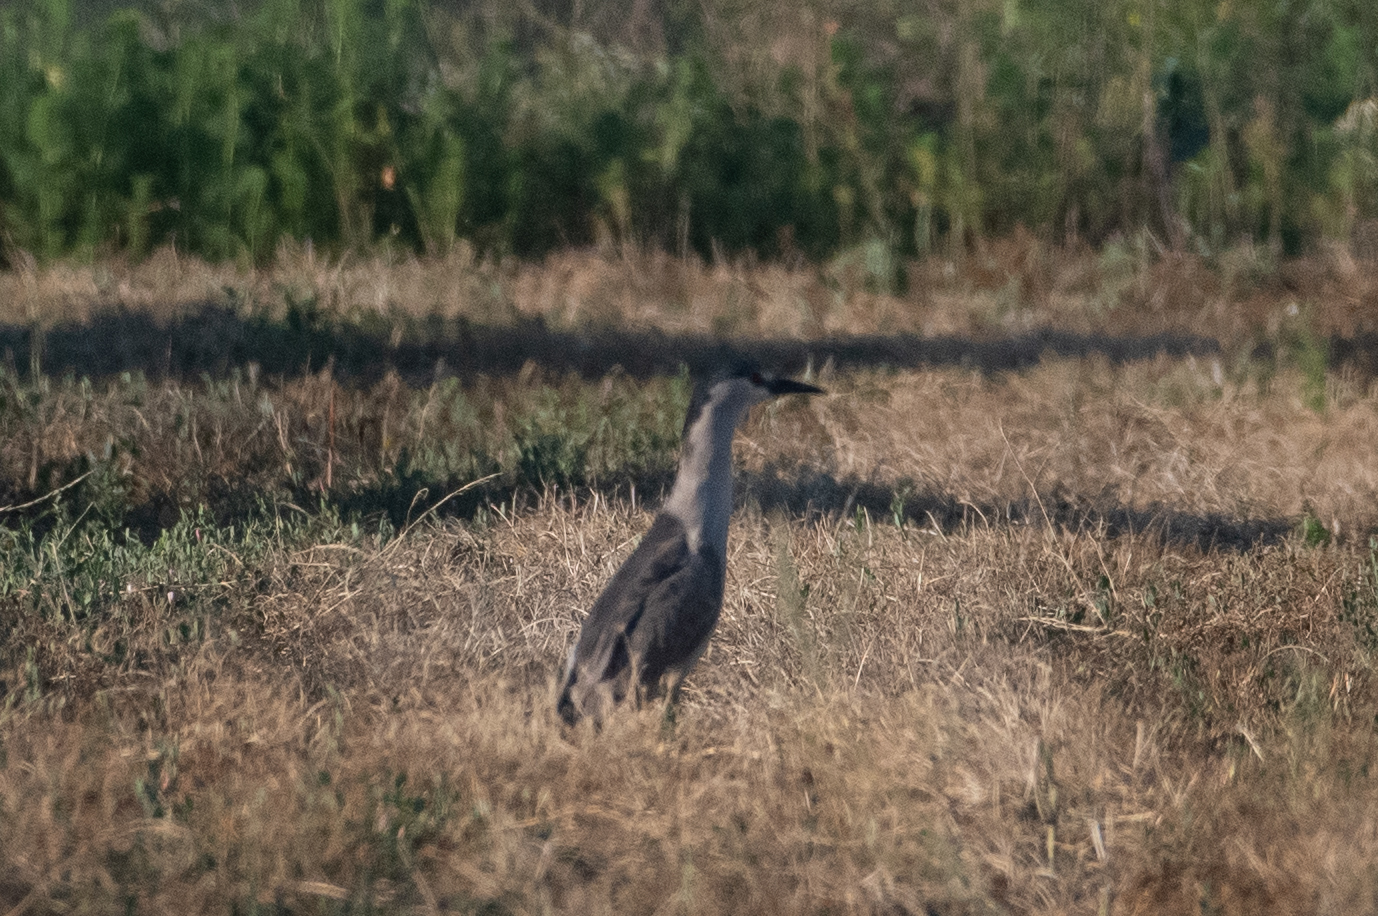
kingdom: Animalia
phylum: Chordata
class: Aves
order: Pelecaniformes
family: Ardeidae
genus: Nycticorax
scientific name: Nycticorax nycticorax
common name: Black-crowned night heron
